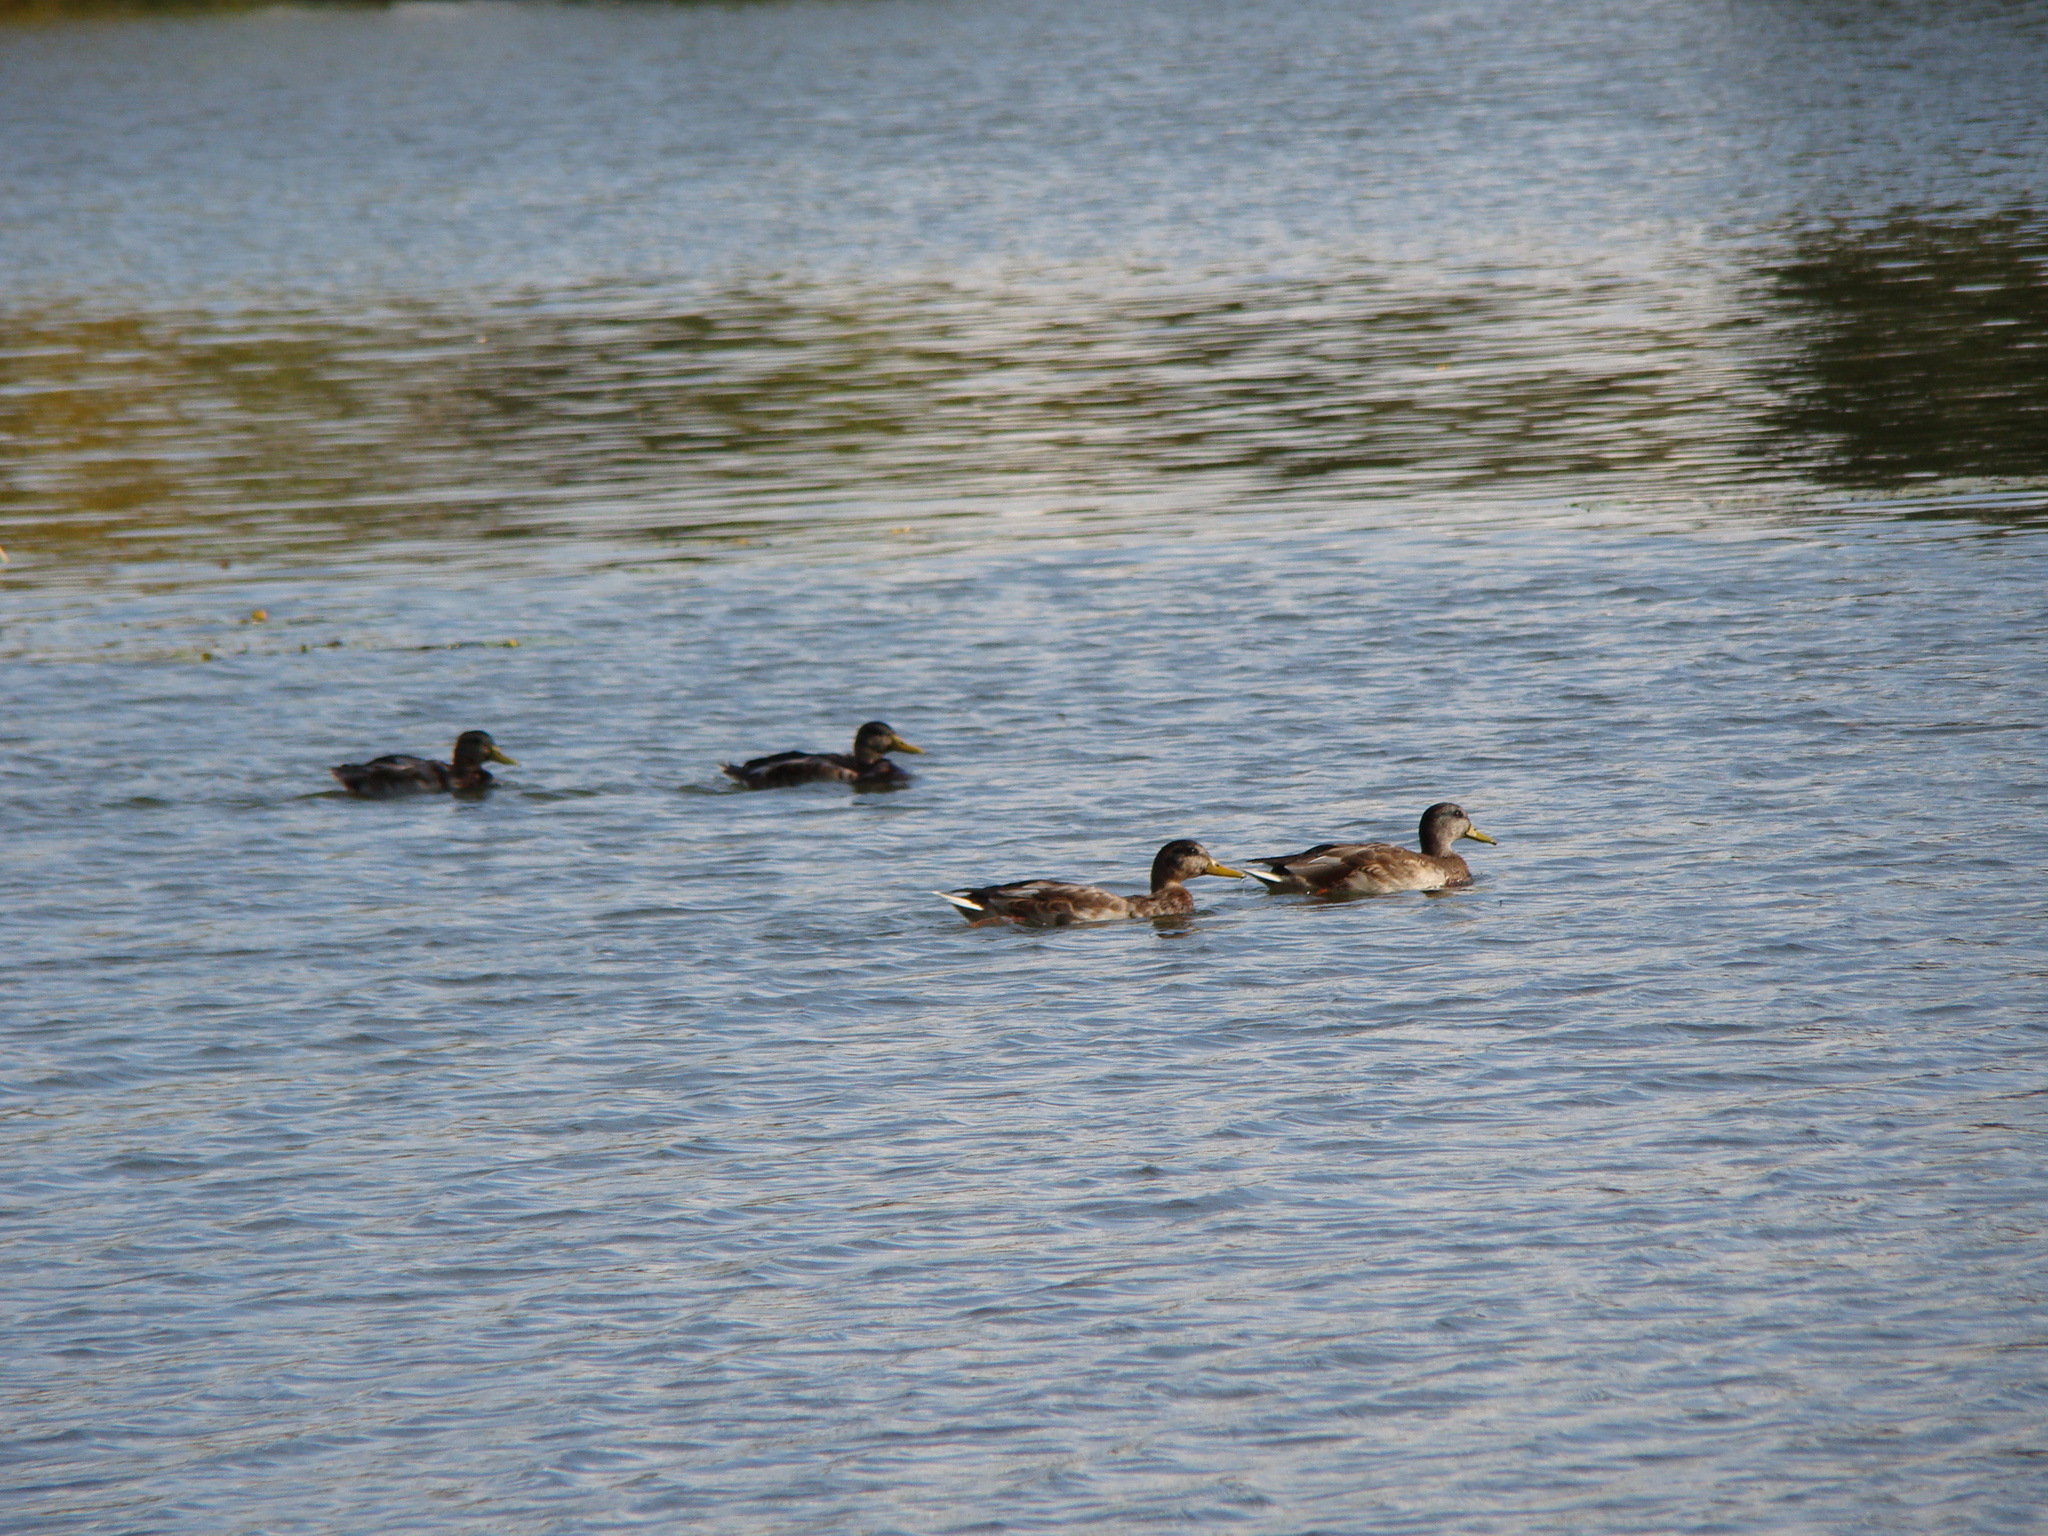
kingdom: Animalia
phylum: Chordata
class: Aves
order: Anseriformes
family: Anatidae
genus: Anas
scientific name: Anas platyrhynchos
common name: Mallard
